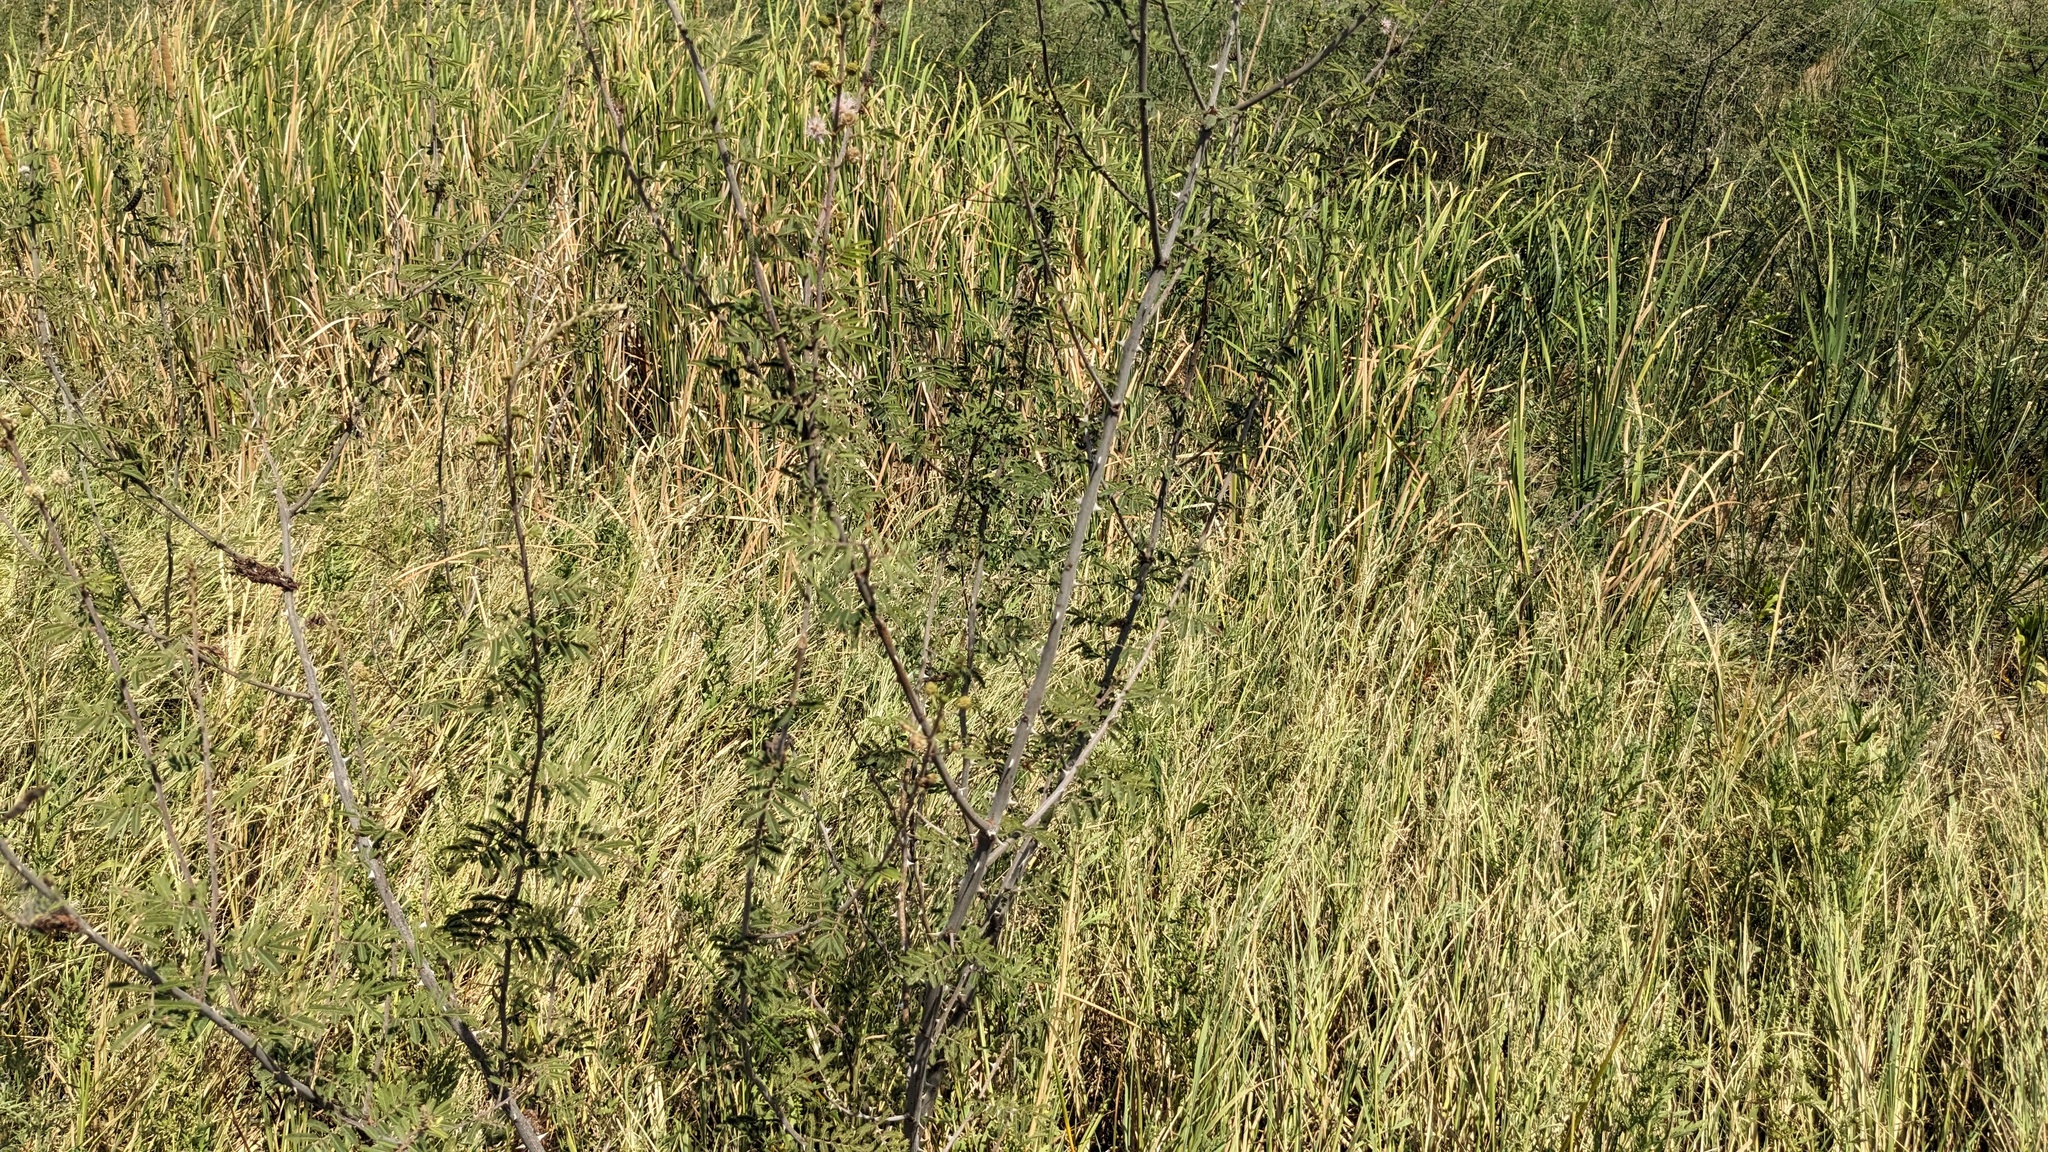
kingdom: Plantae
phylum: Tracheophyta
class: Magnoliopsida
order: Fabales
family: Fabaceae
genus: Mimosa
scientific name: Mimosa pigra
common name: Black mimosa
